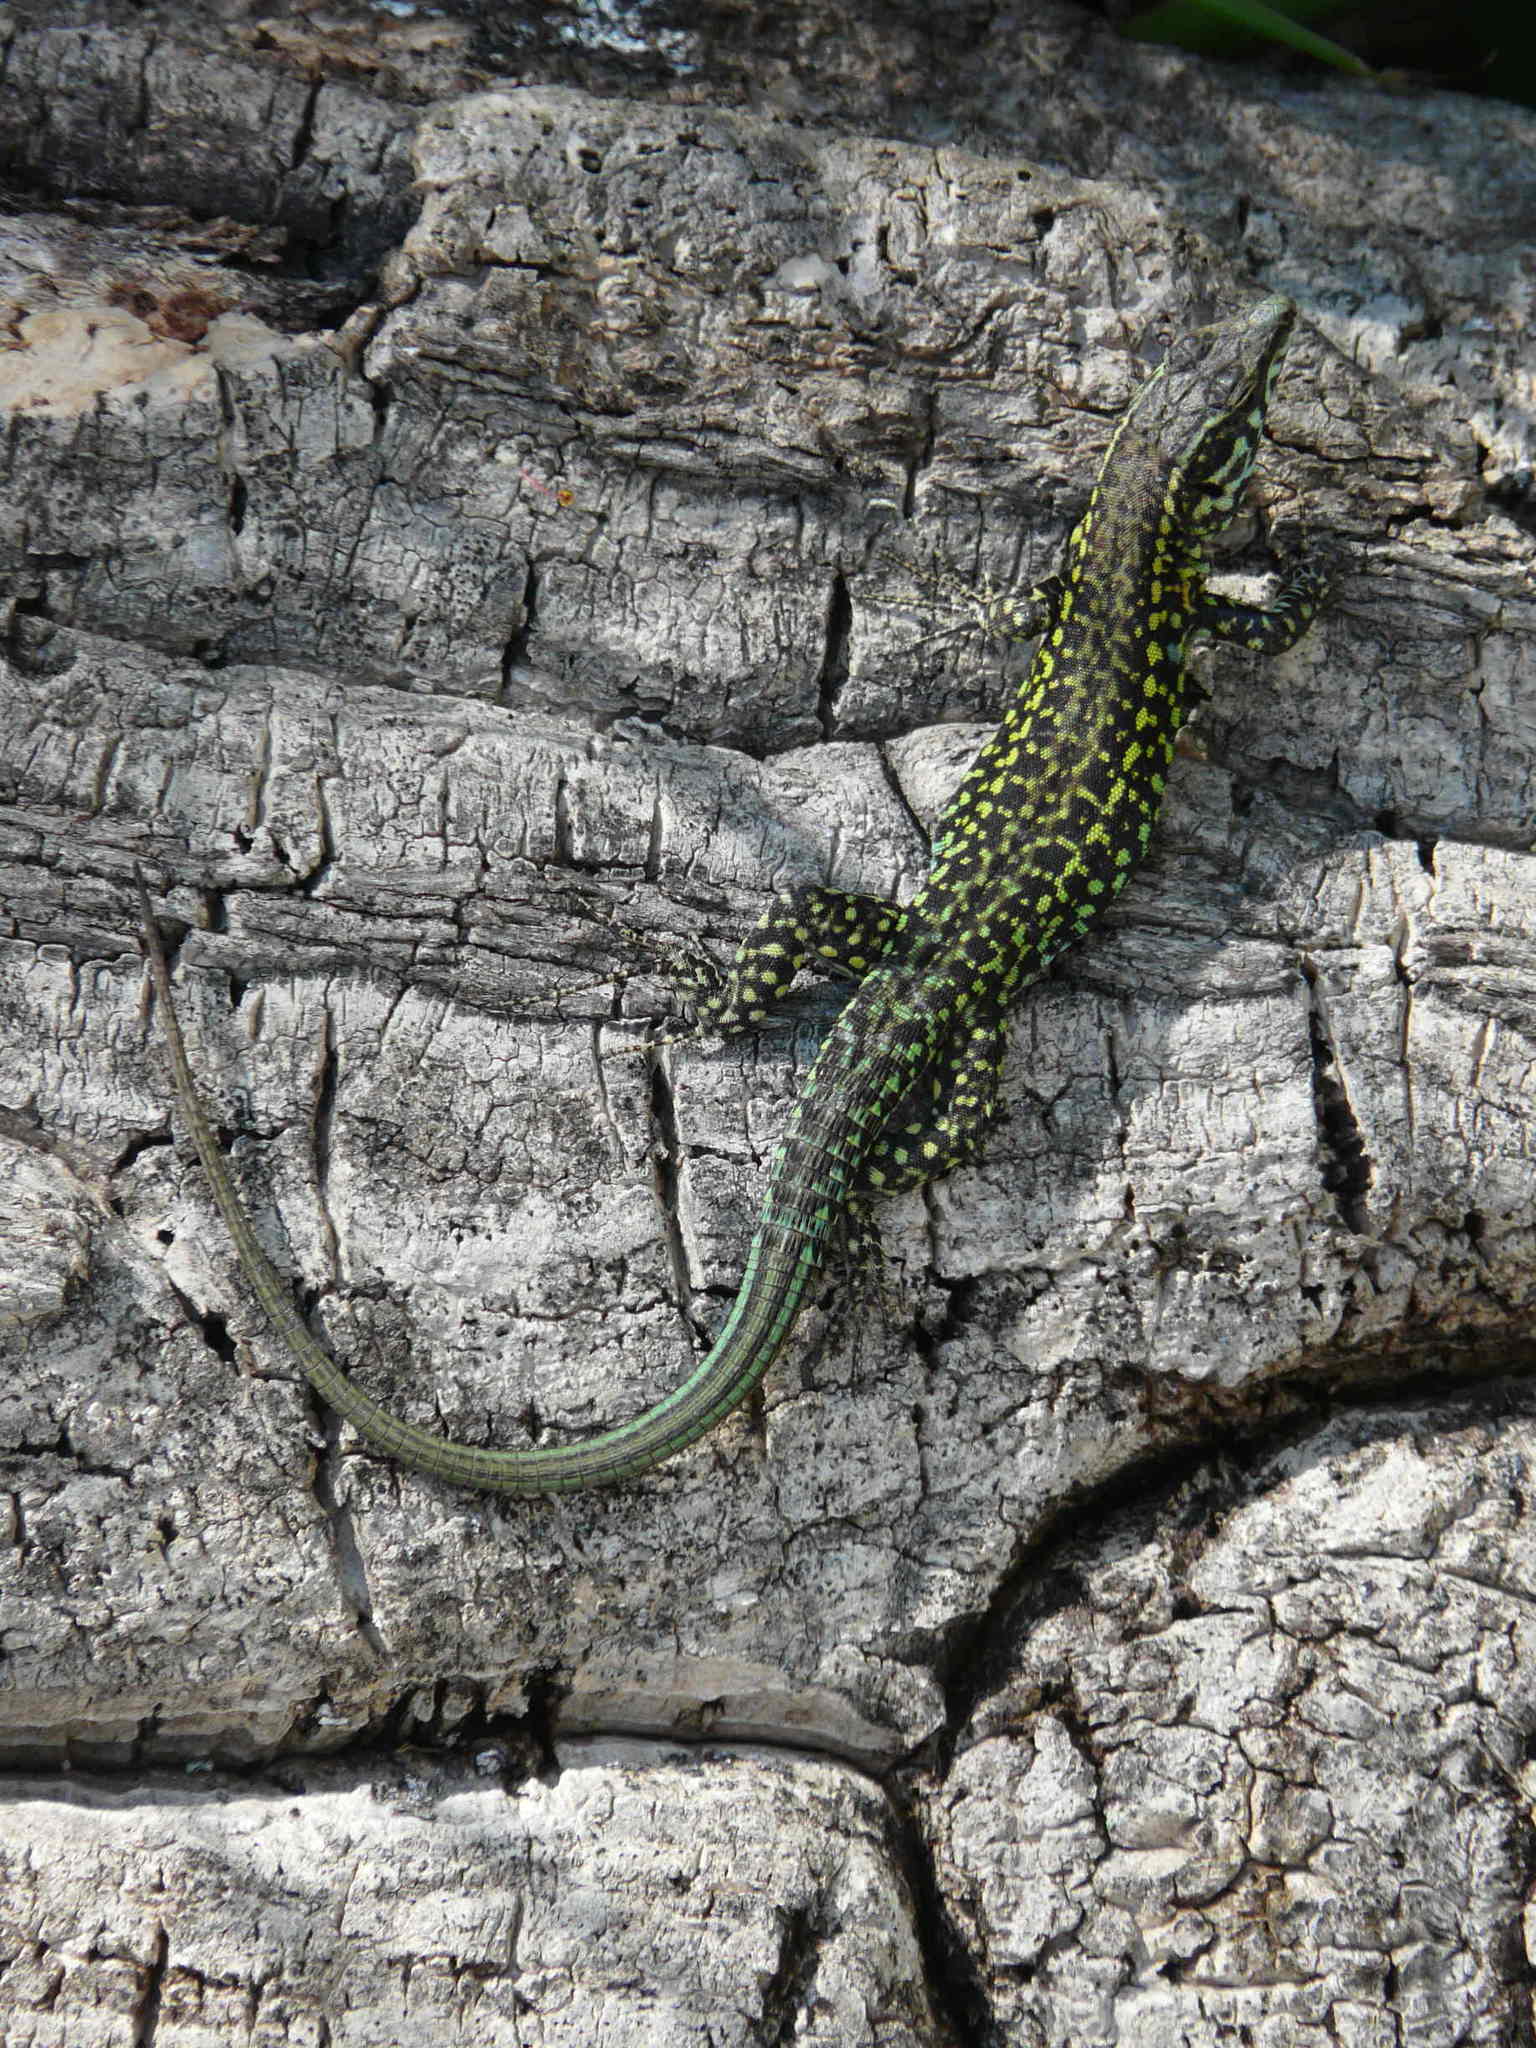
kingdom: Animalia
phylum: Chordata
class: Squamata
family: Lacertidae
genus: Podarcis
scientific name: Podarcis tiliguerta
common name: Tyrrhenian wall lizard
